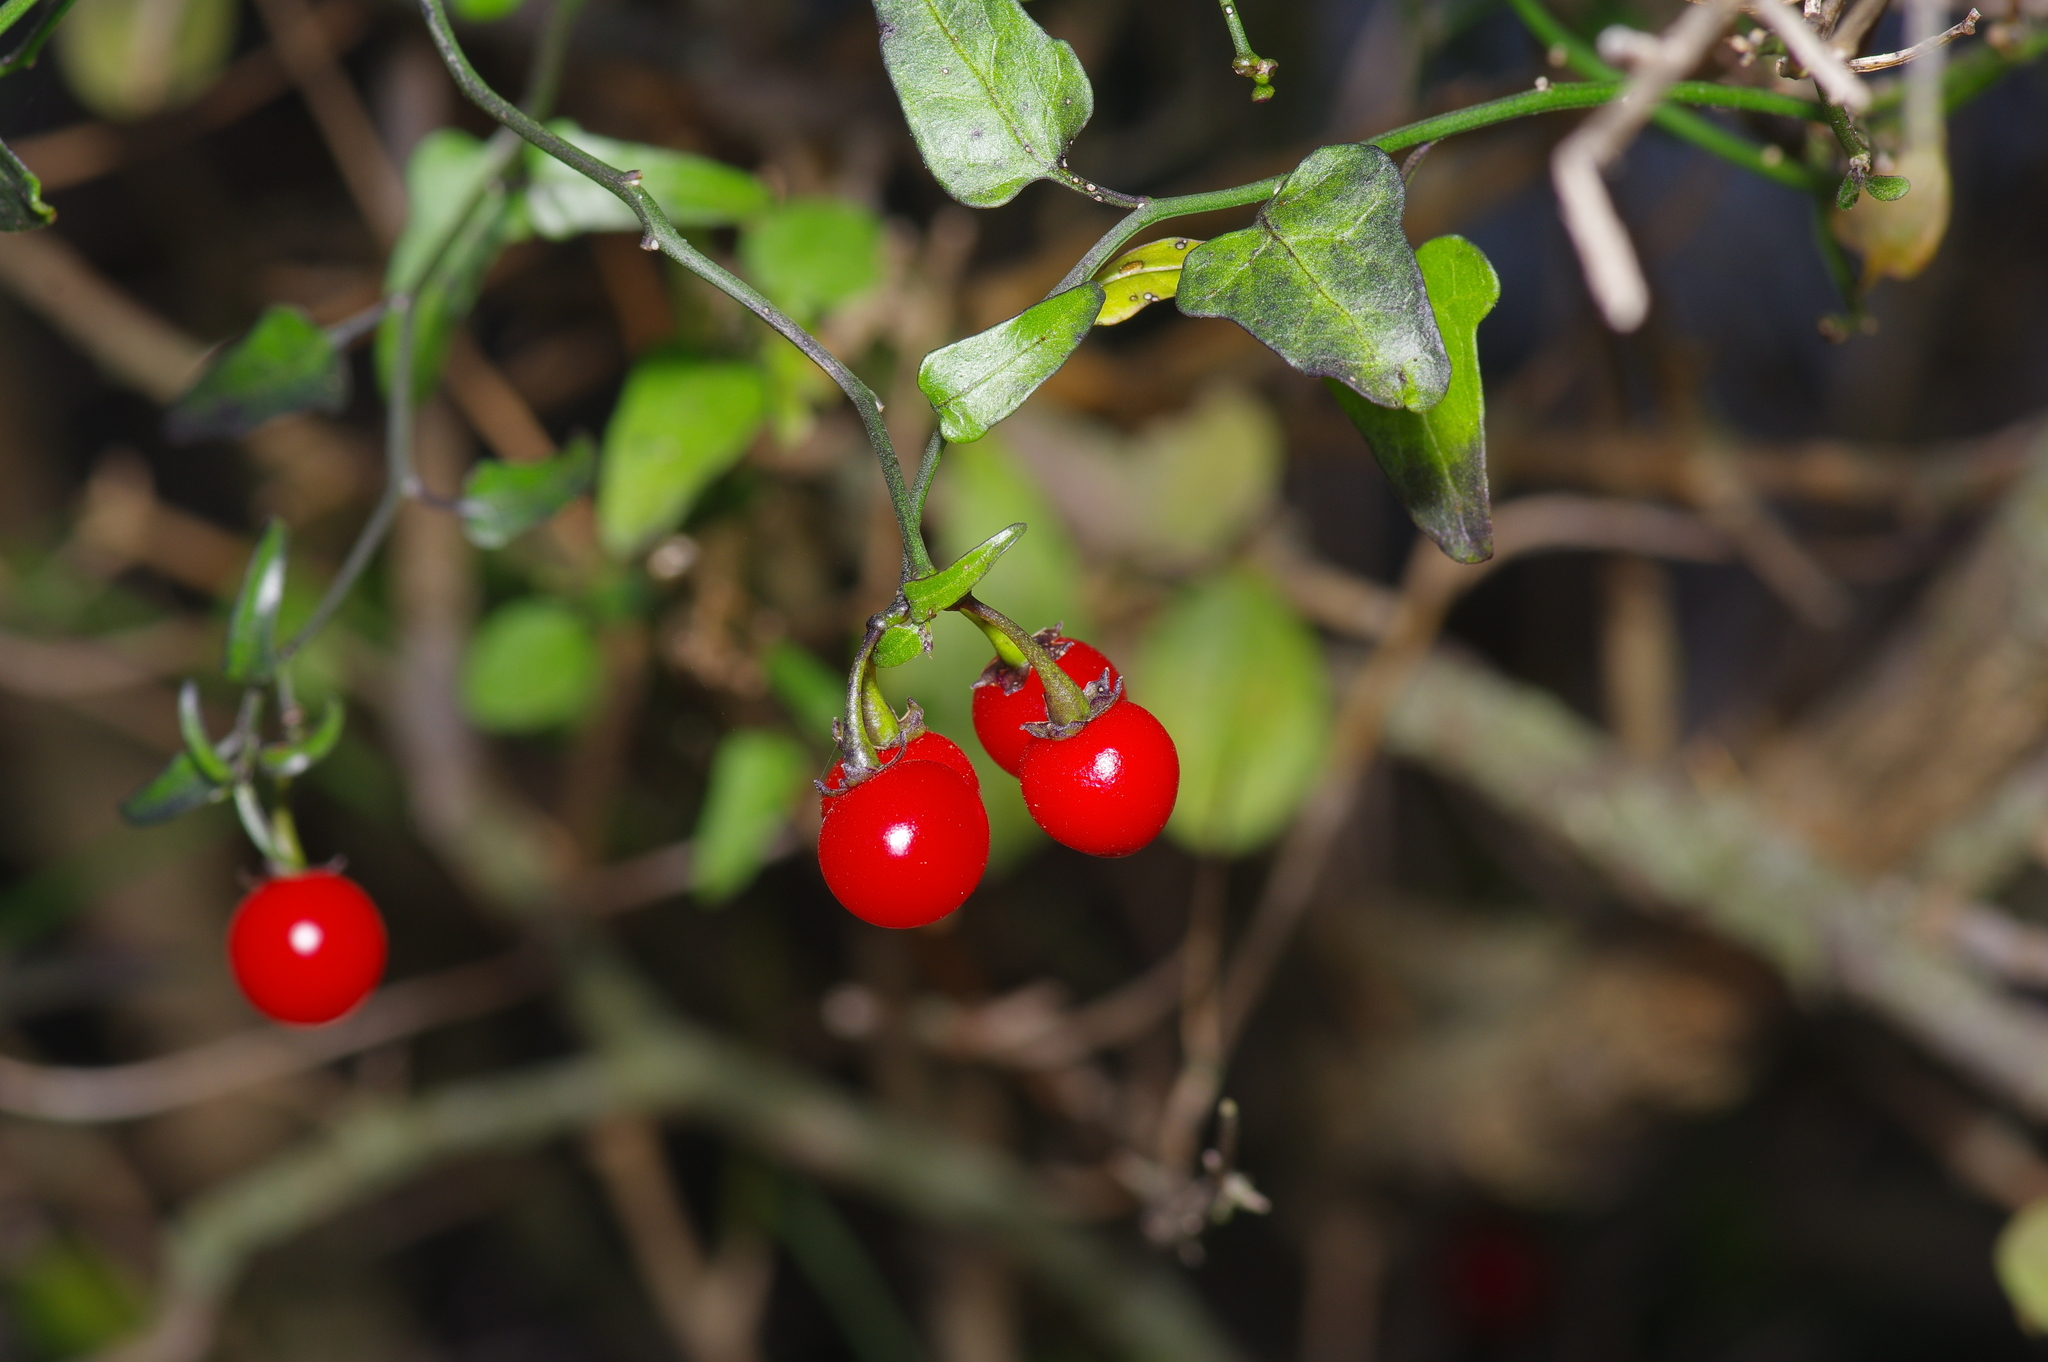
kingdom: Plantae
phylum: Tracheophyta
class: Magnoliopsida
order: Solanales
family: Solanaceae
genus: Solanum
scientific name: Solanum triquetrum
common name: Texas nightshade
